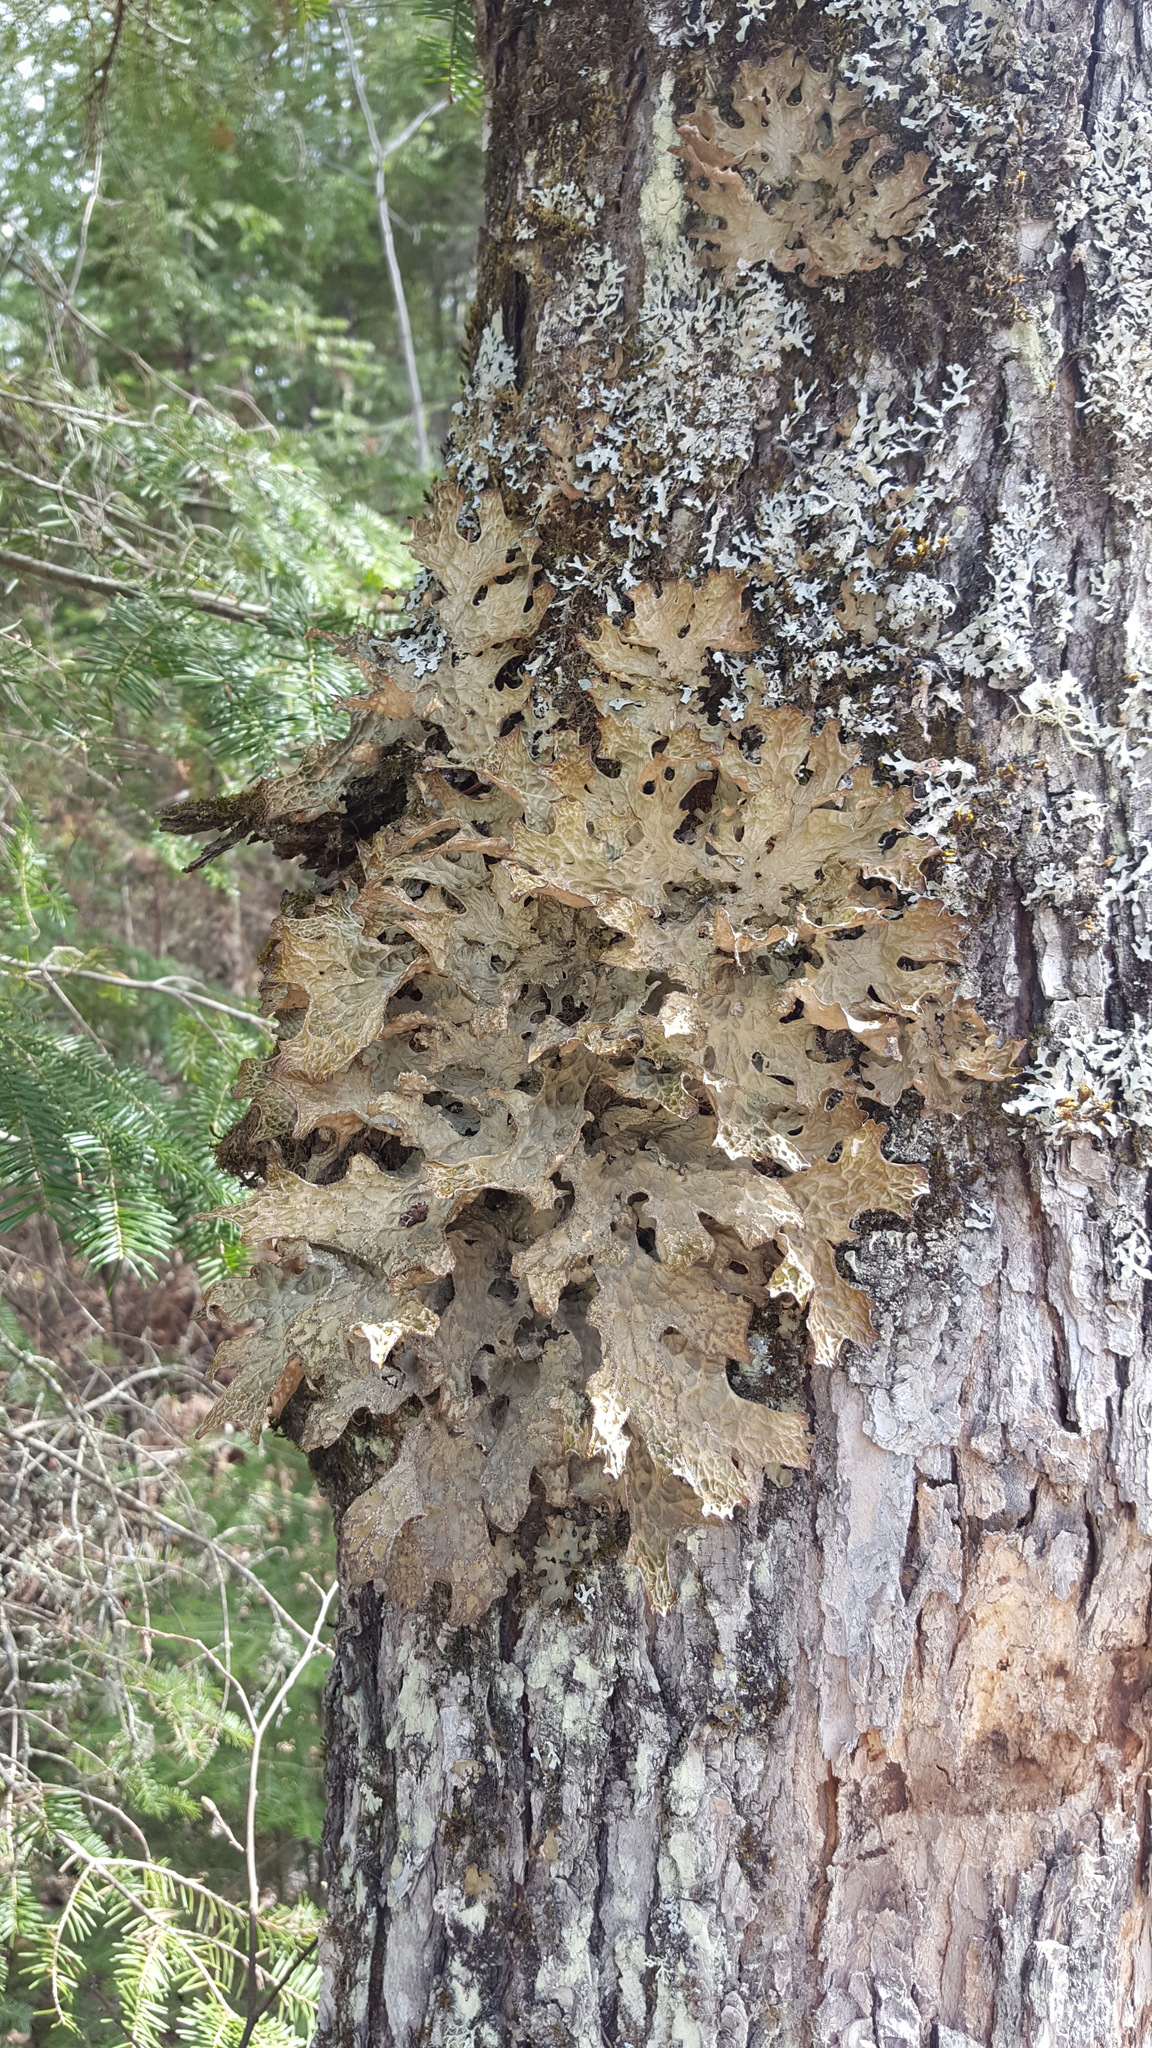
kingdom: Fungi
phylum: Ascomycota
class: Lecanoromycetes
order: Peltigerales
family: Lobariaceae
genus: Lobaria
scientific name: Lobaria pulmonaria
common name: Lungwort
